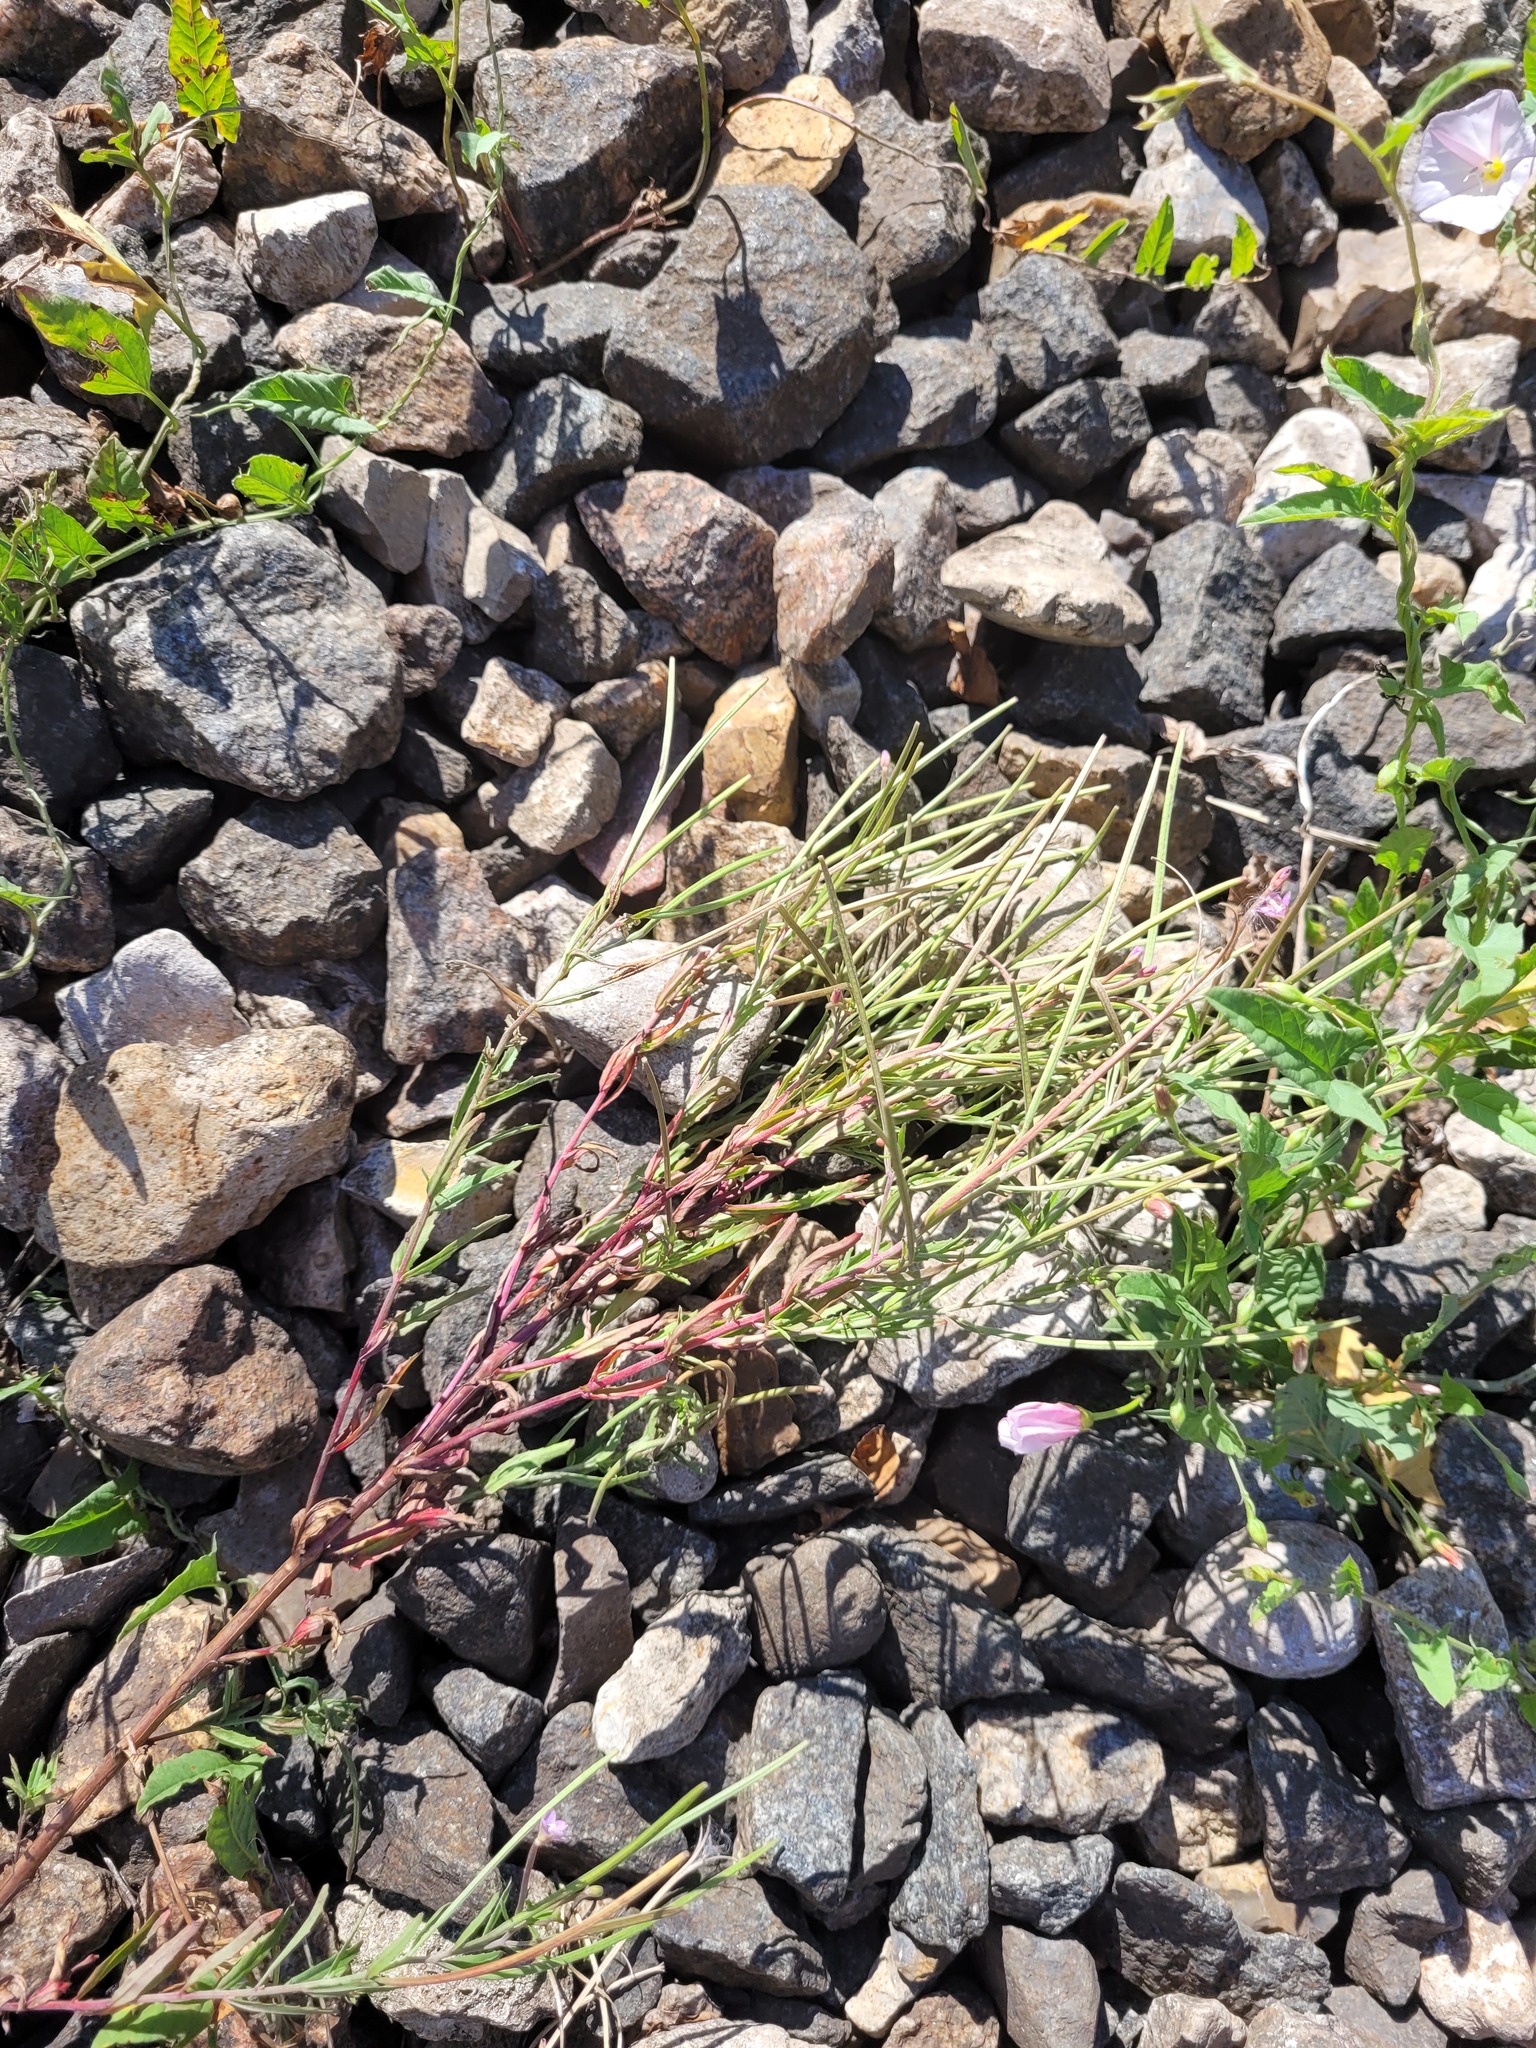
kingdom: Plantae
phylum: Tracheophyta
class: Magnoliopsida
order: Myrtales
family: Onagraceae
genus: Epilobium
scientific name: Epilobium tetragonum
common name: Square-stemmed willowherb
